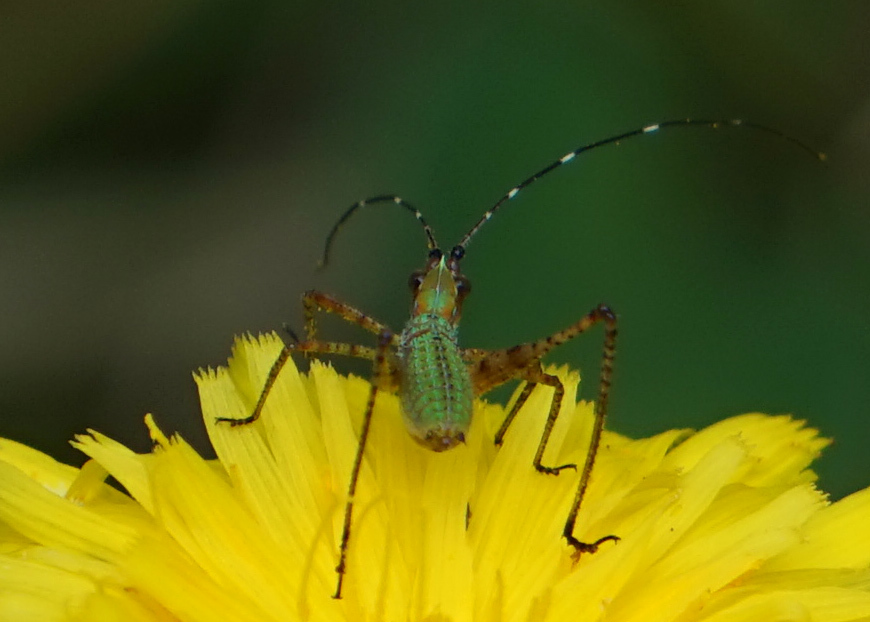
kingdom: Animalia
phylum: Arthropoda
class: Insecta
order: Orthoptera
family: Tettigoniidae
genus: Scudderia
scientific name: Scudderia furcata
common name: Fork-tailed bush katydid
